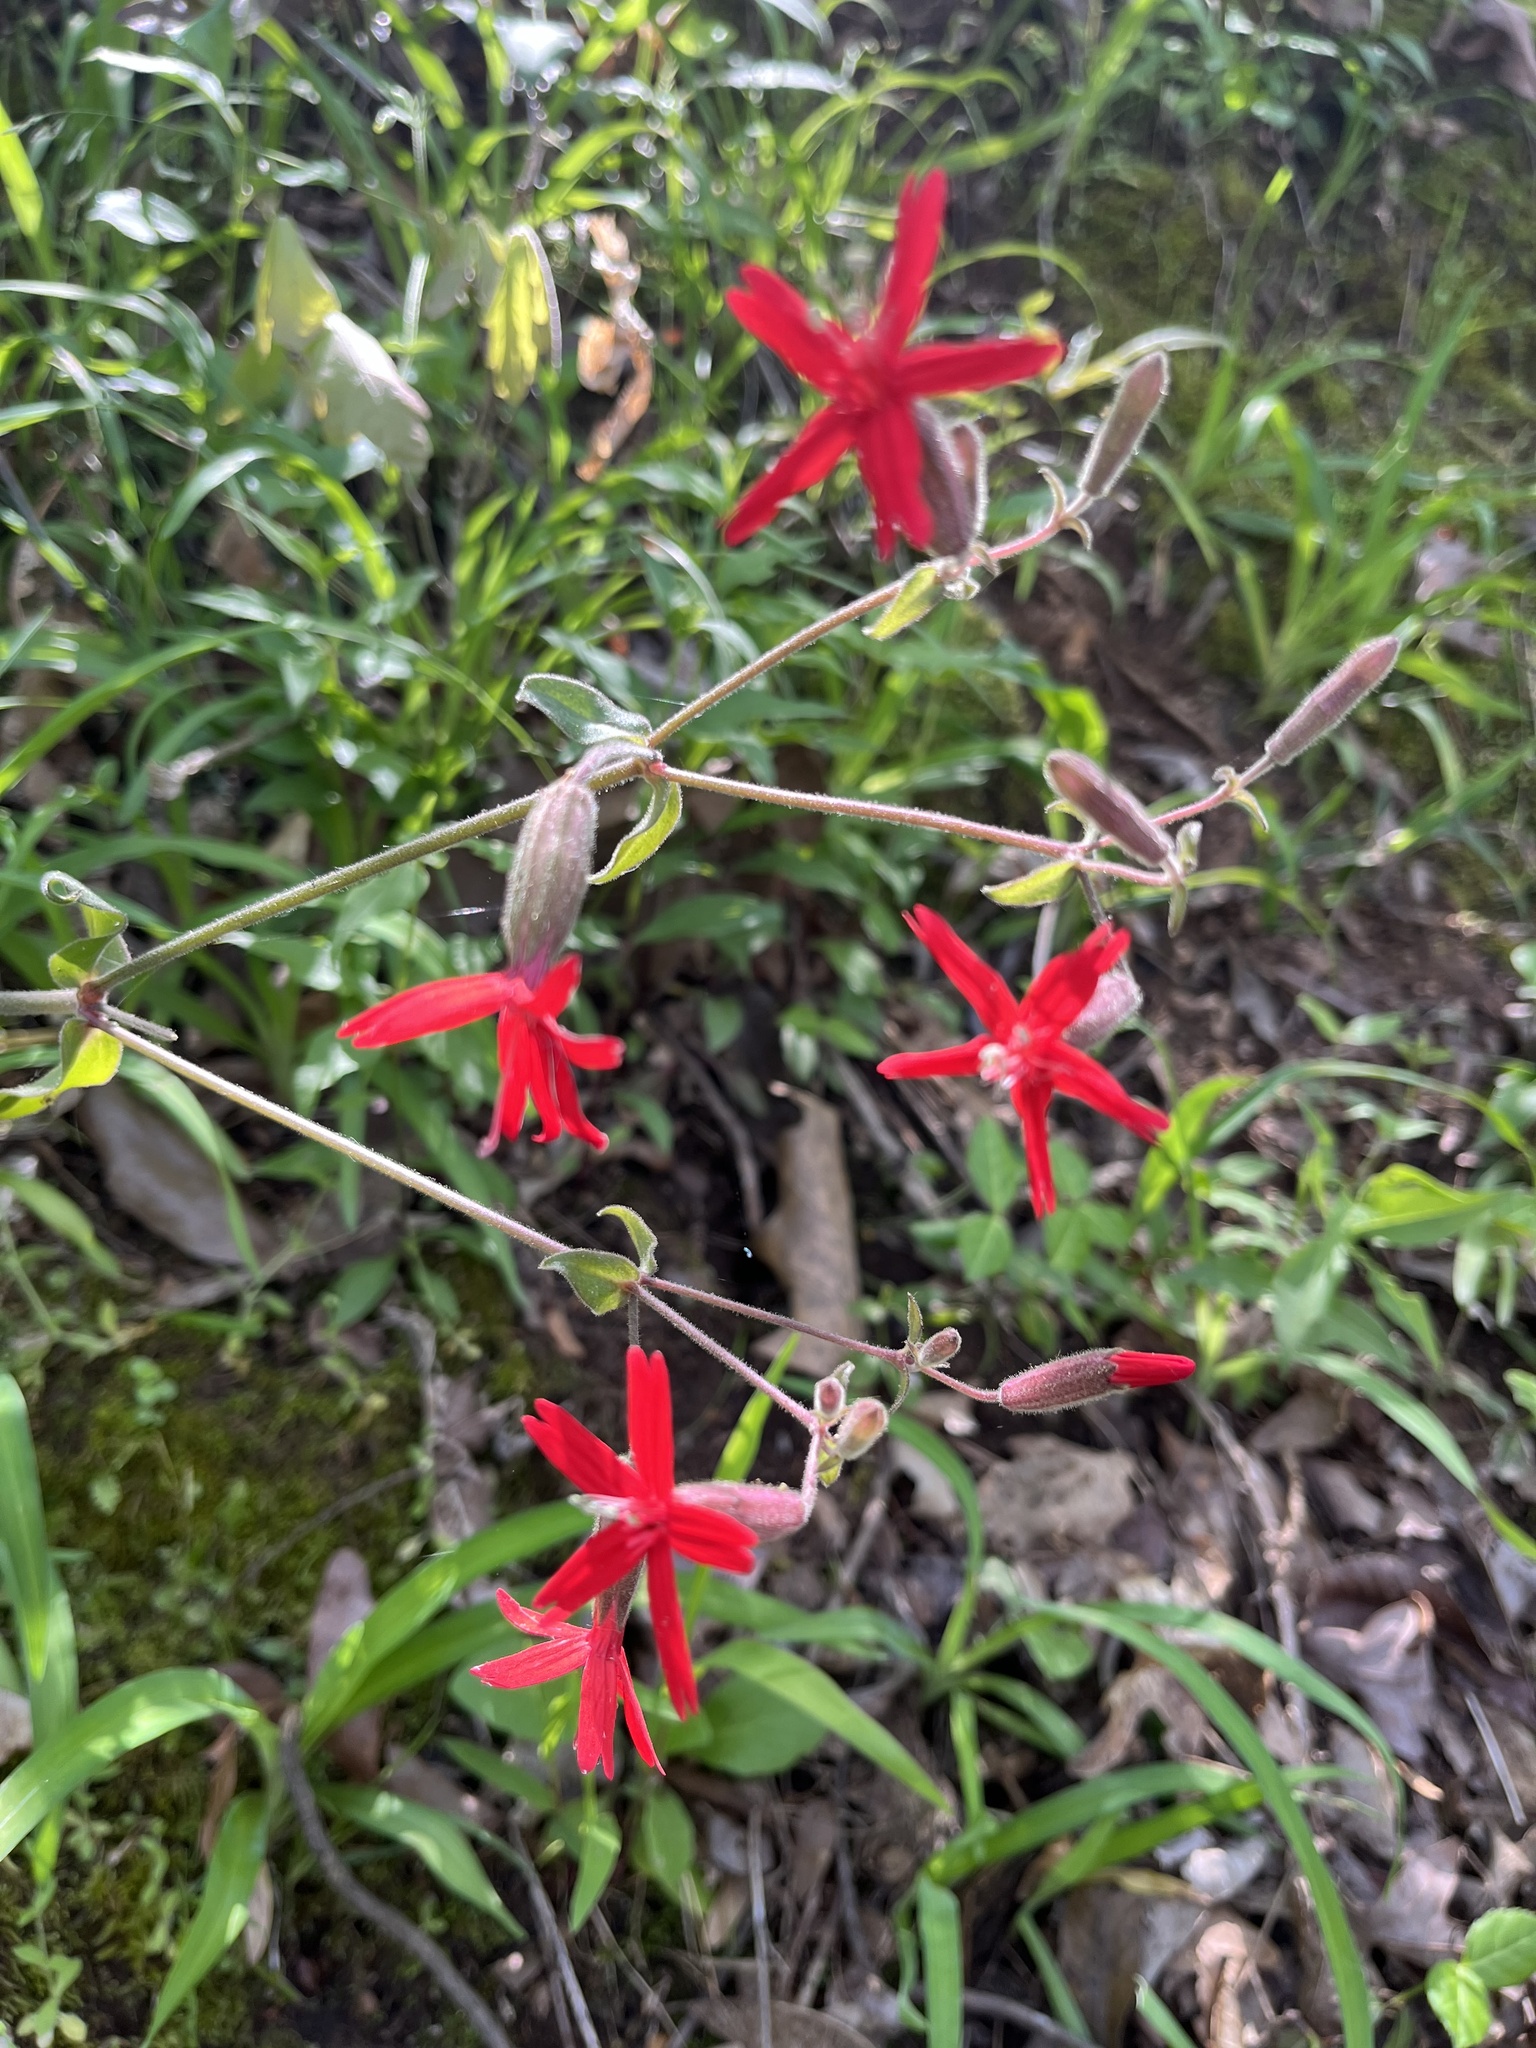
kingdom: Plantae
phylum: Tracheophyta
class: Magnoliopsida
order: Caryophyllales
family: Caryophyllaceae
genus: Silene
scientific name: Silene virginica
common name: Fire-pink
